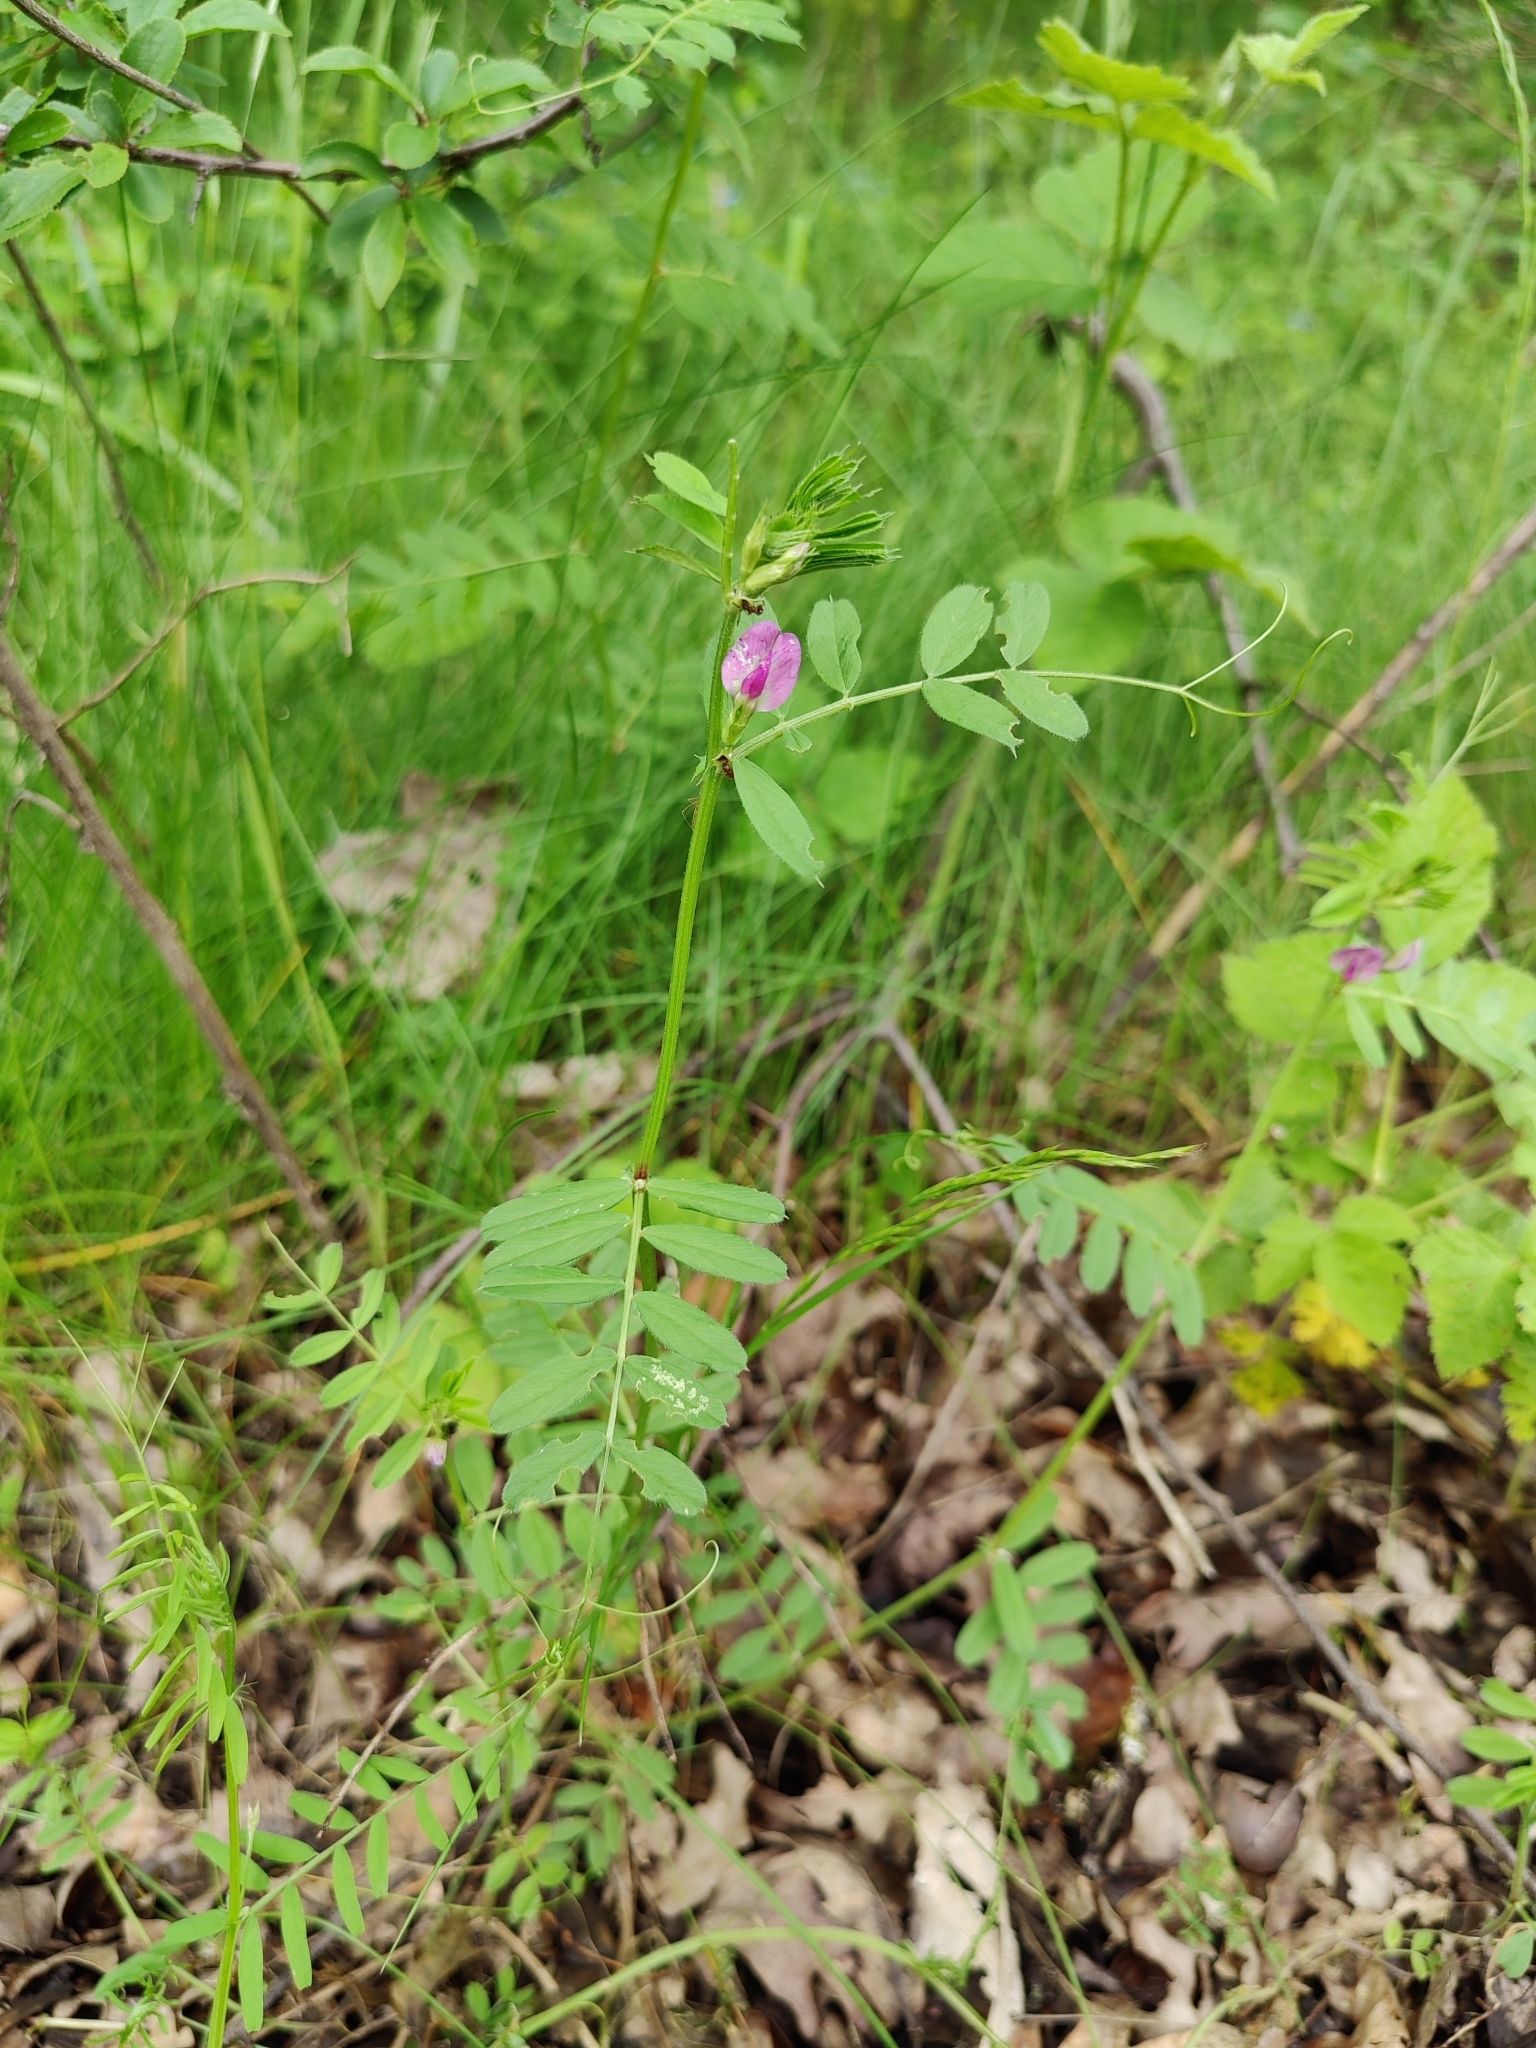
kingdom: Plantae
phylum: Tracheophyta
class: Magnoliopsida
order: Fabales
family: Fabaceae
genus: Vicia
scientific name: Vicia sativa
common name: Garden vetch
